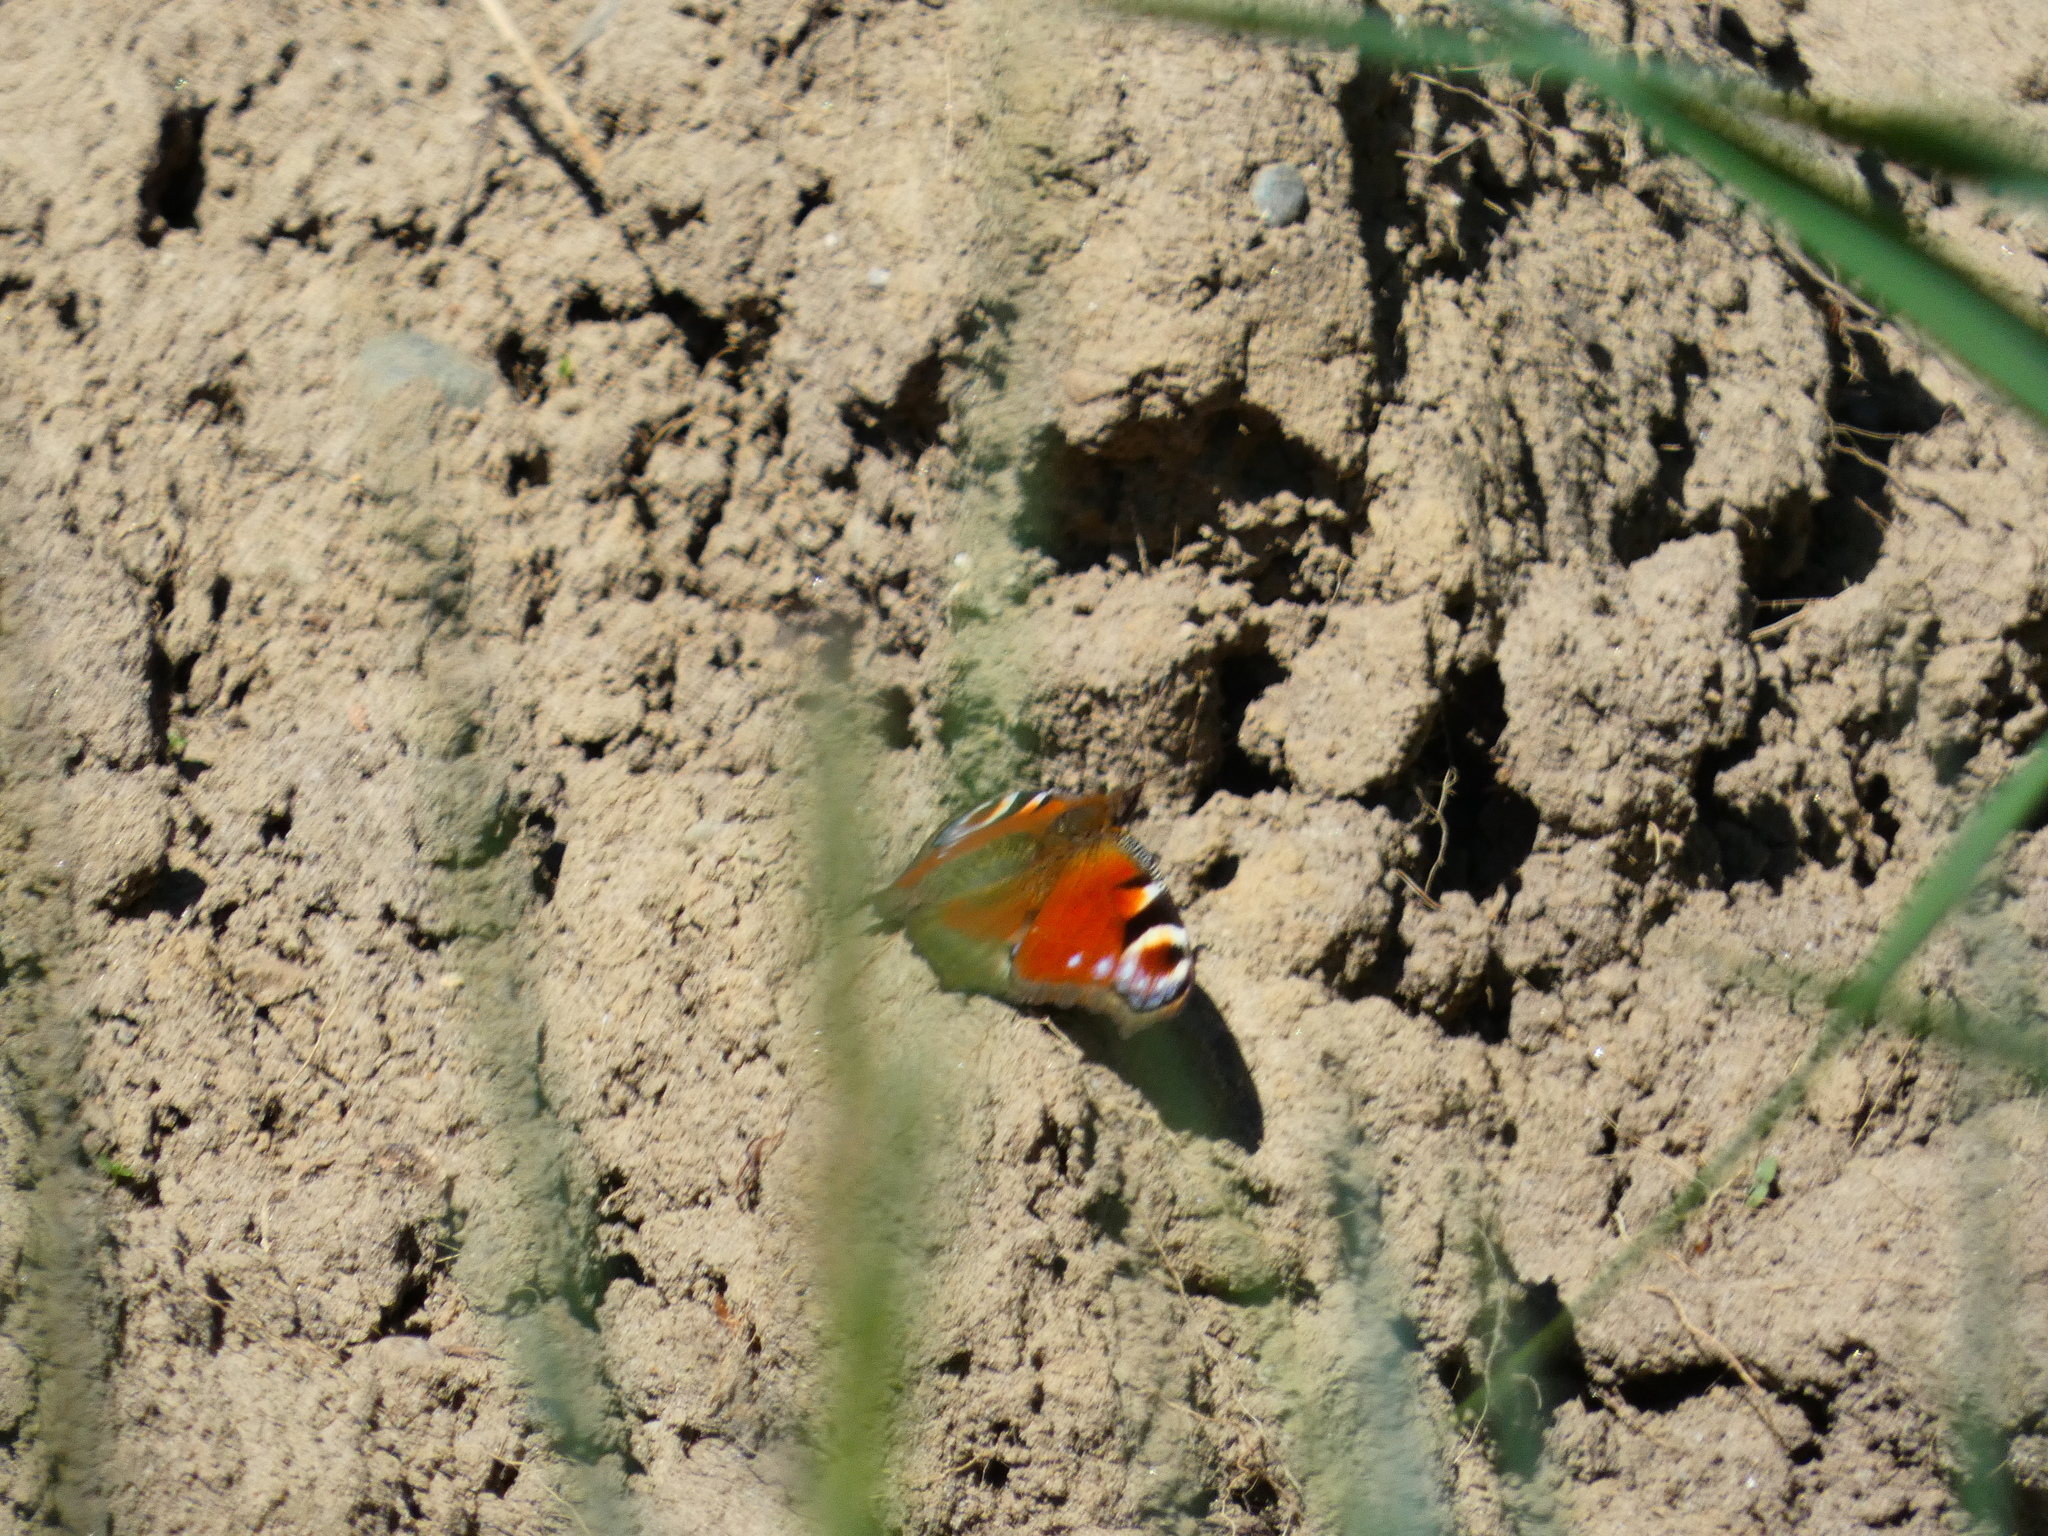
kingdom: Animalia
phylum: Arthropoda
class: Insecta
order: Lepidoptera
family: Nymphalidae
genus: Aglais
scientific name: Aglais io
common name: Peacock
